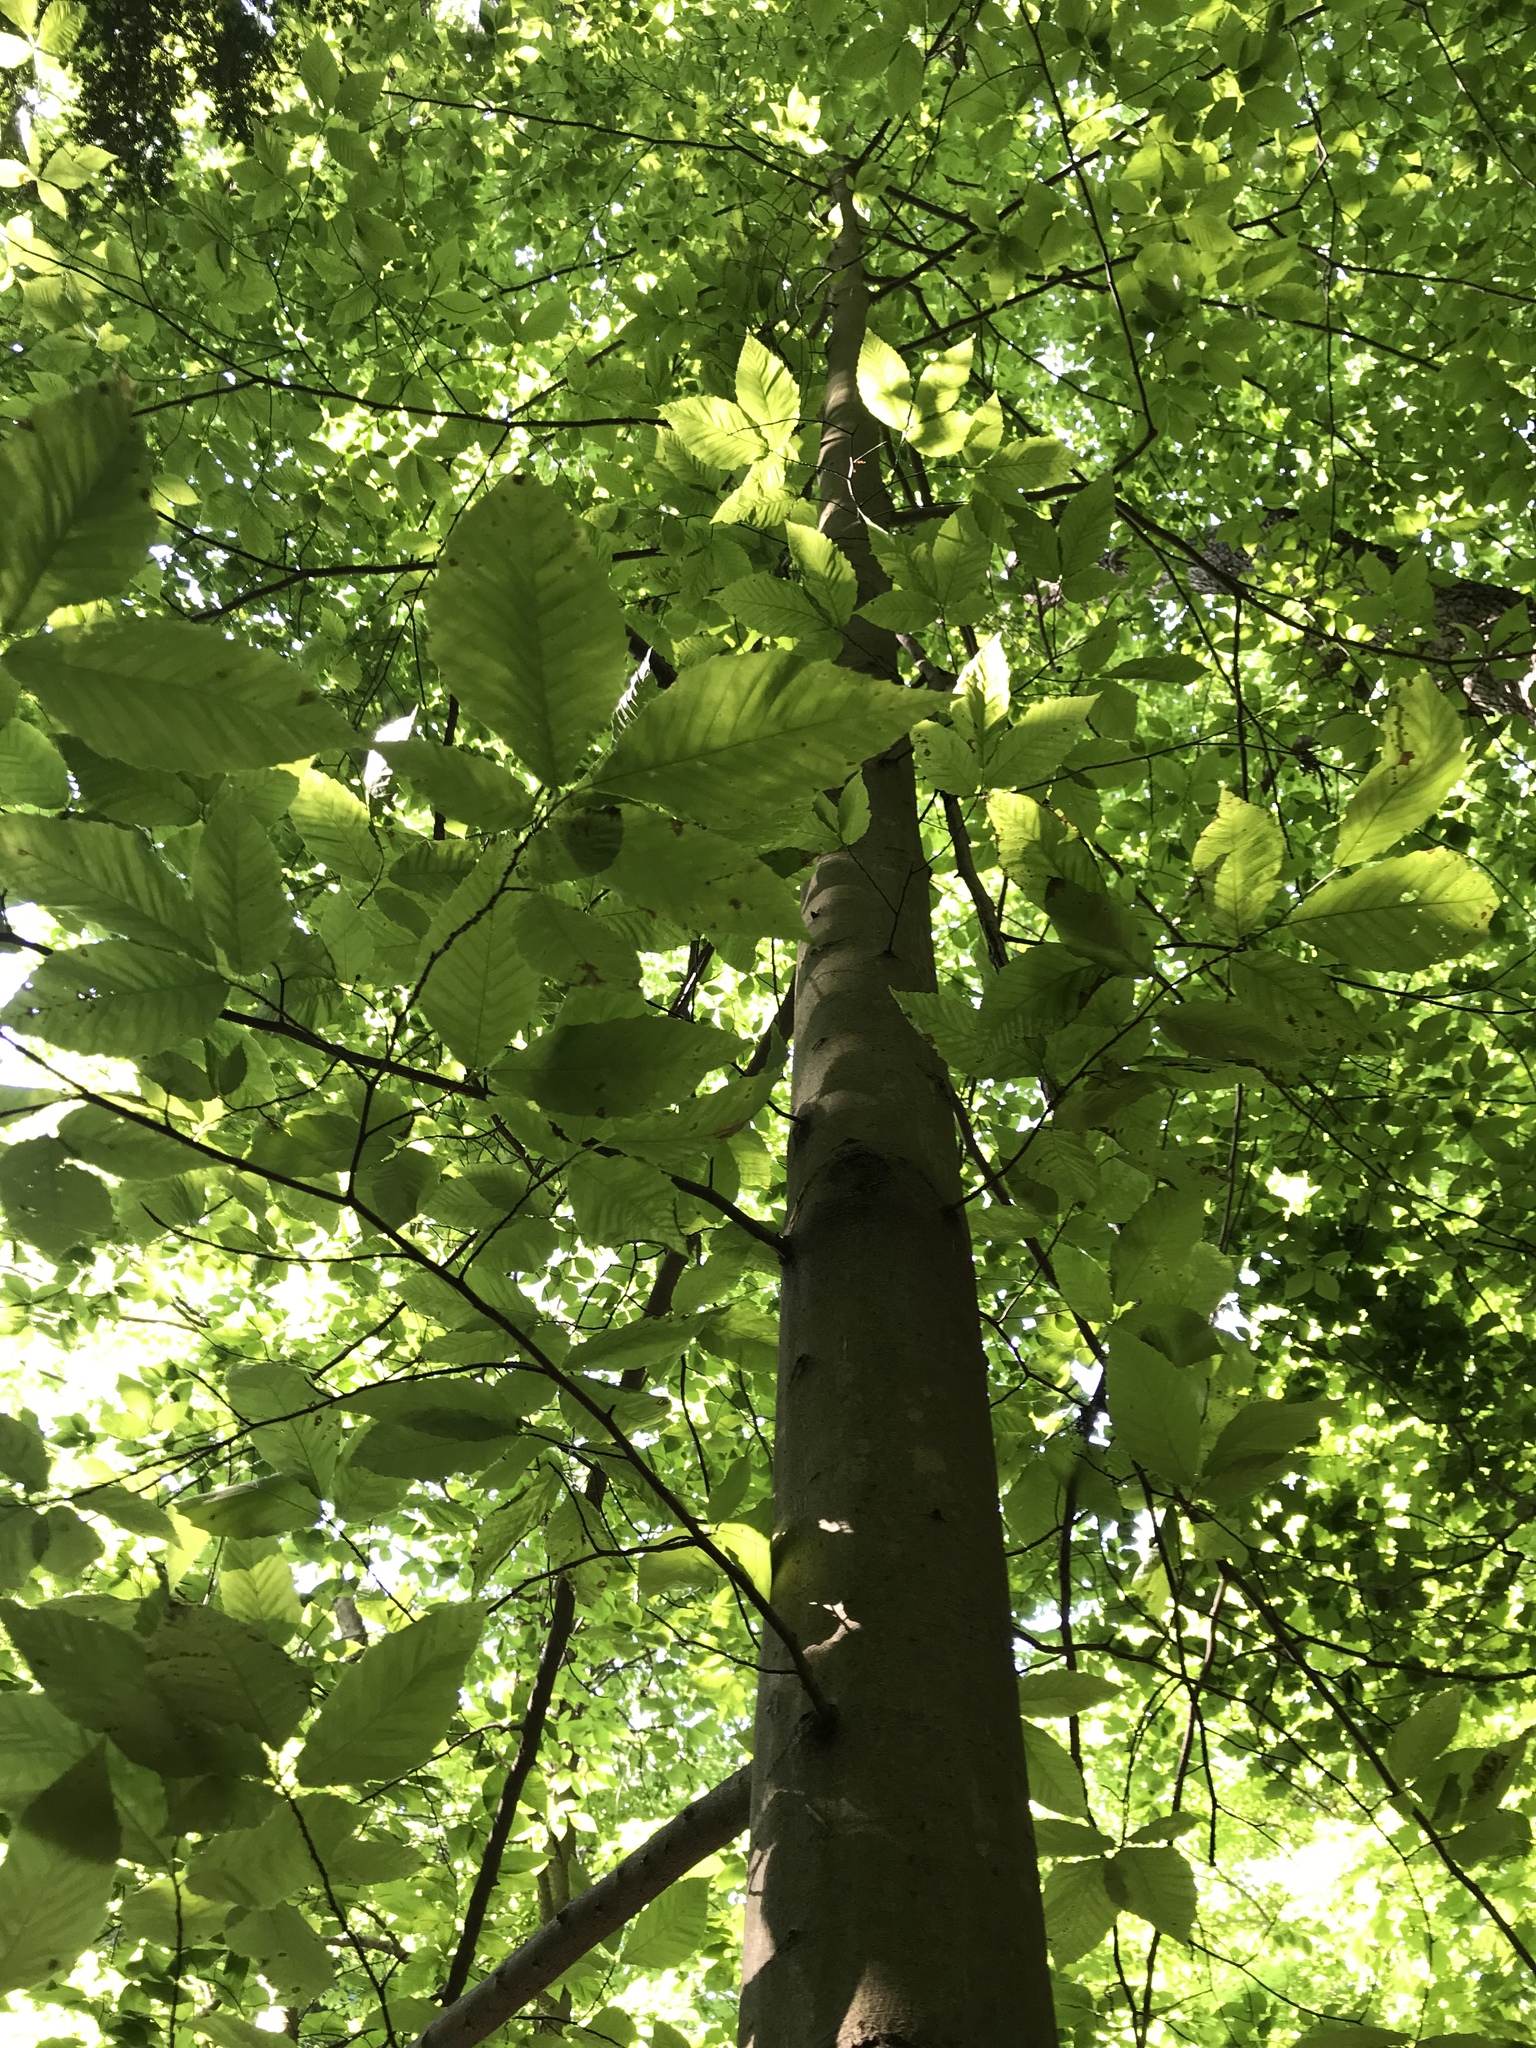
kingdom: Plantae
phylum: Tracheophyta
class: Magnoliopsida
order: Fagales
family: Fagaceae
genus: Fagus
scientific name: Fagus grandifolia
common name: American beech
